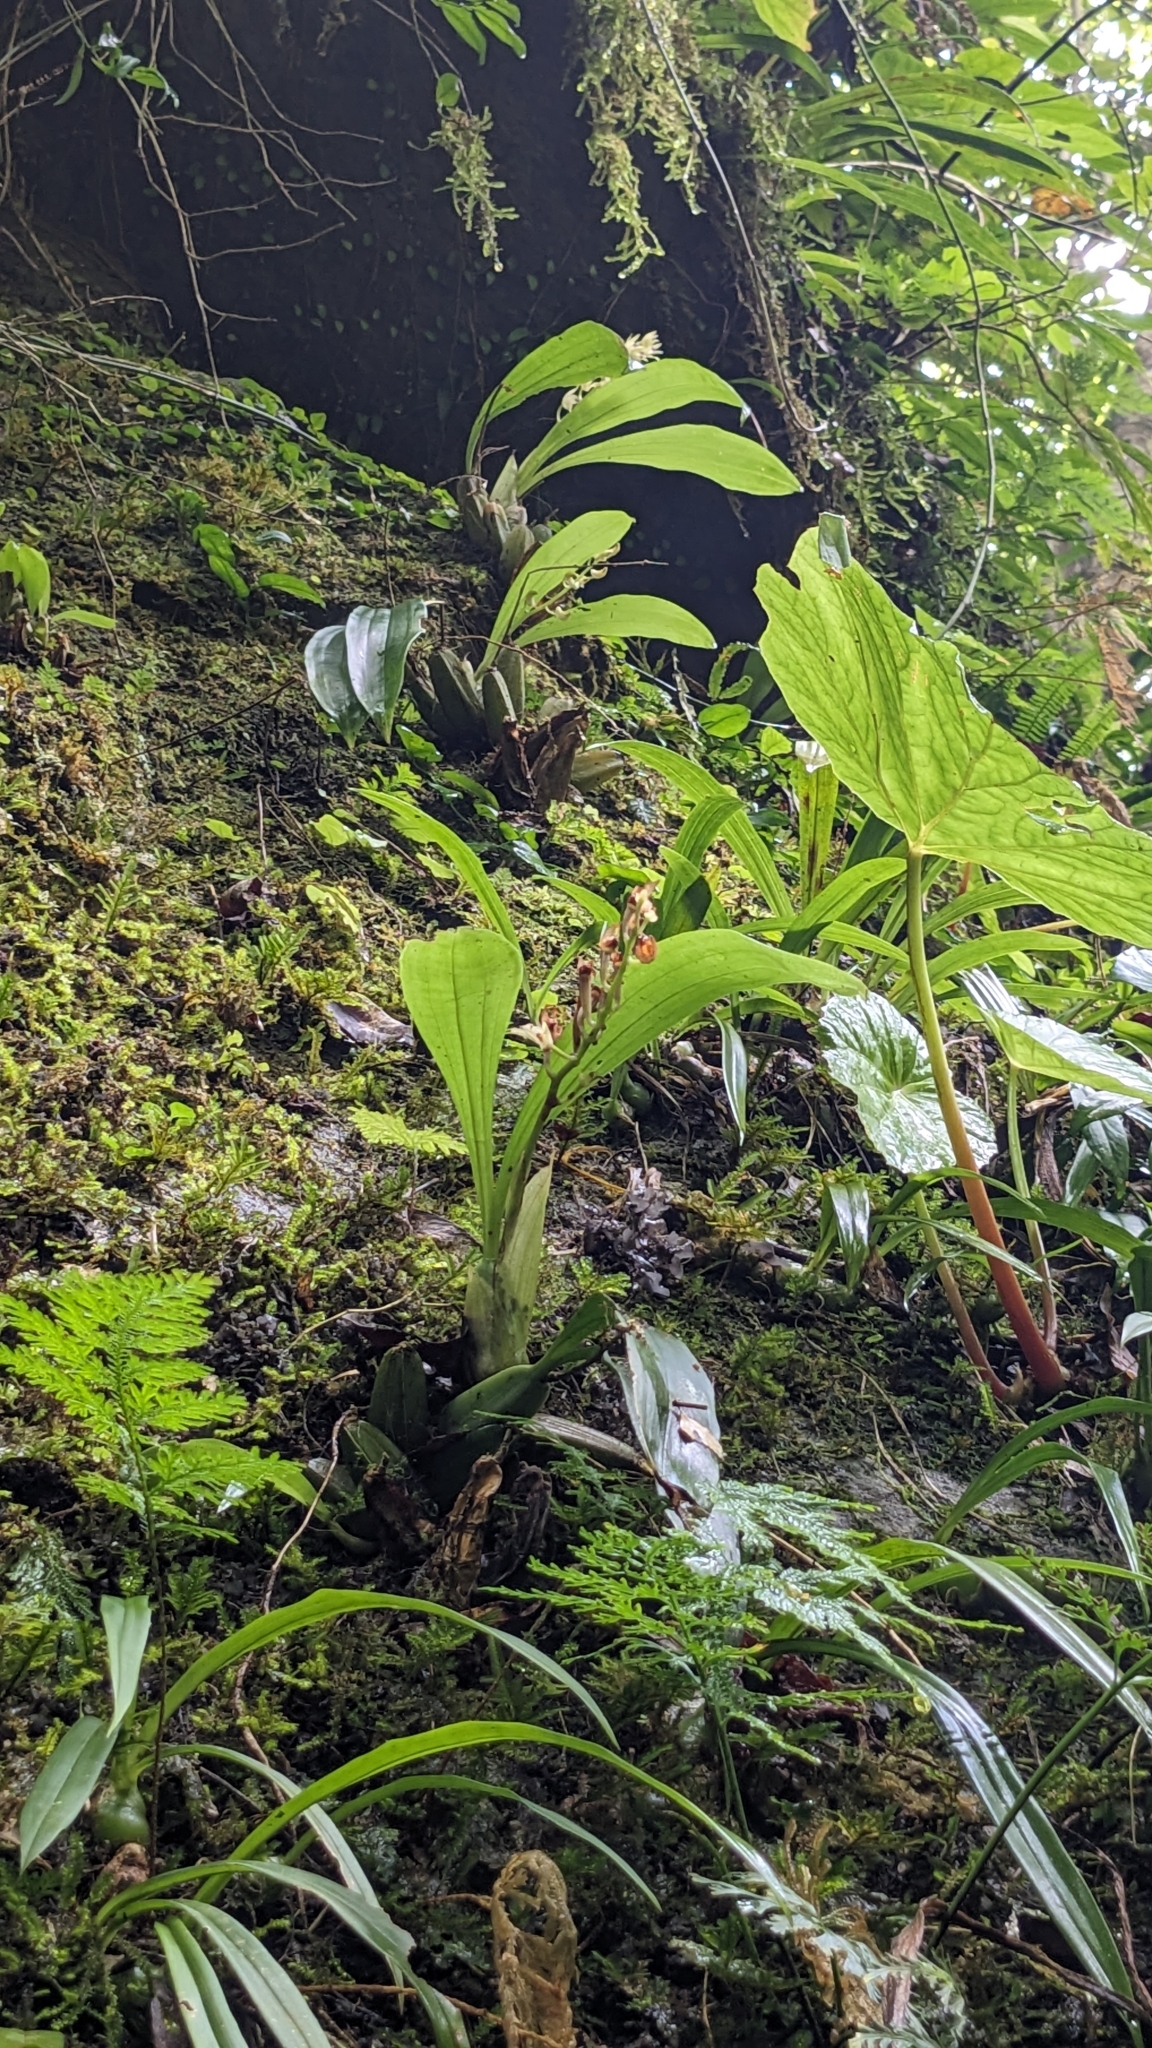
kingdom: Plantae
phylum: Tracheophyta
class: Liliopsida
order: Asparagales
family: Orchidaceae
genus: Eria
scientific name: Eria scabrilinguis
